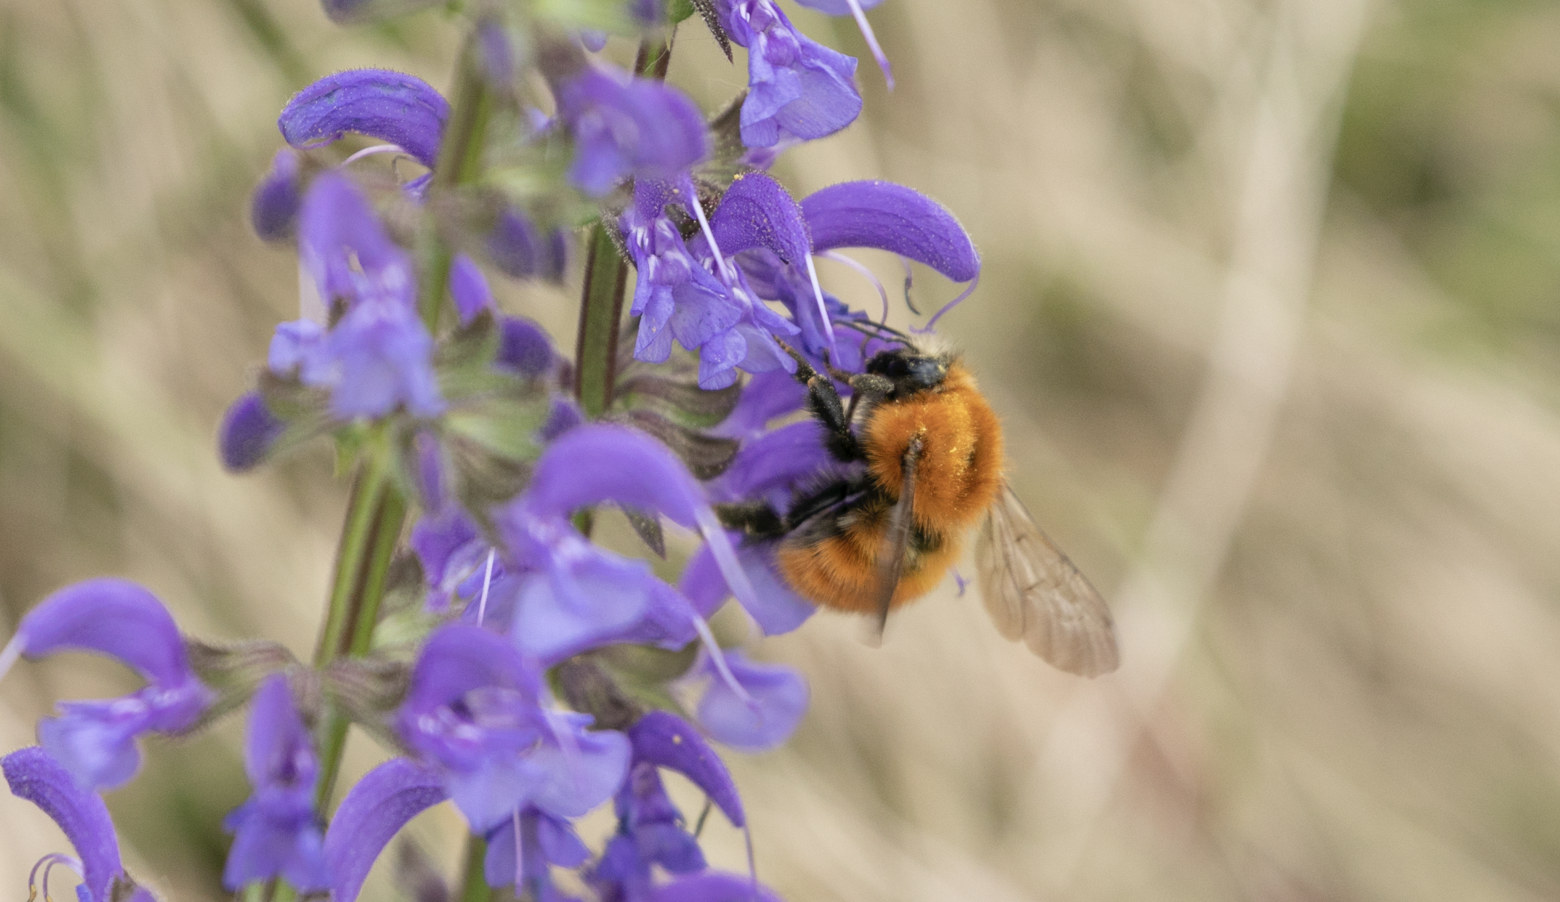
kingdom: Animalia
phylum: Arthropoda
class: Insecta
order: Hymenoptera
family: Apidae
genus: Bombus
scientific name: Bombus pascuorum
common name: Common carder bee
